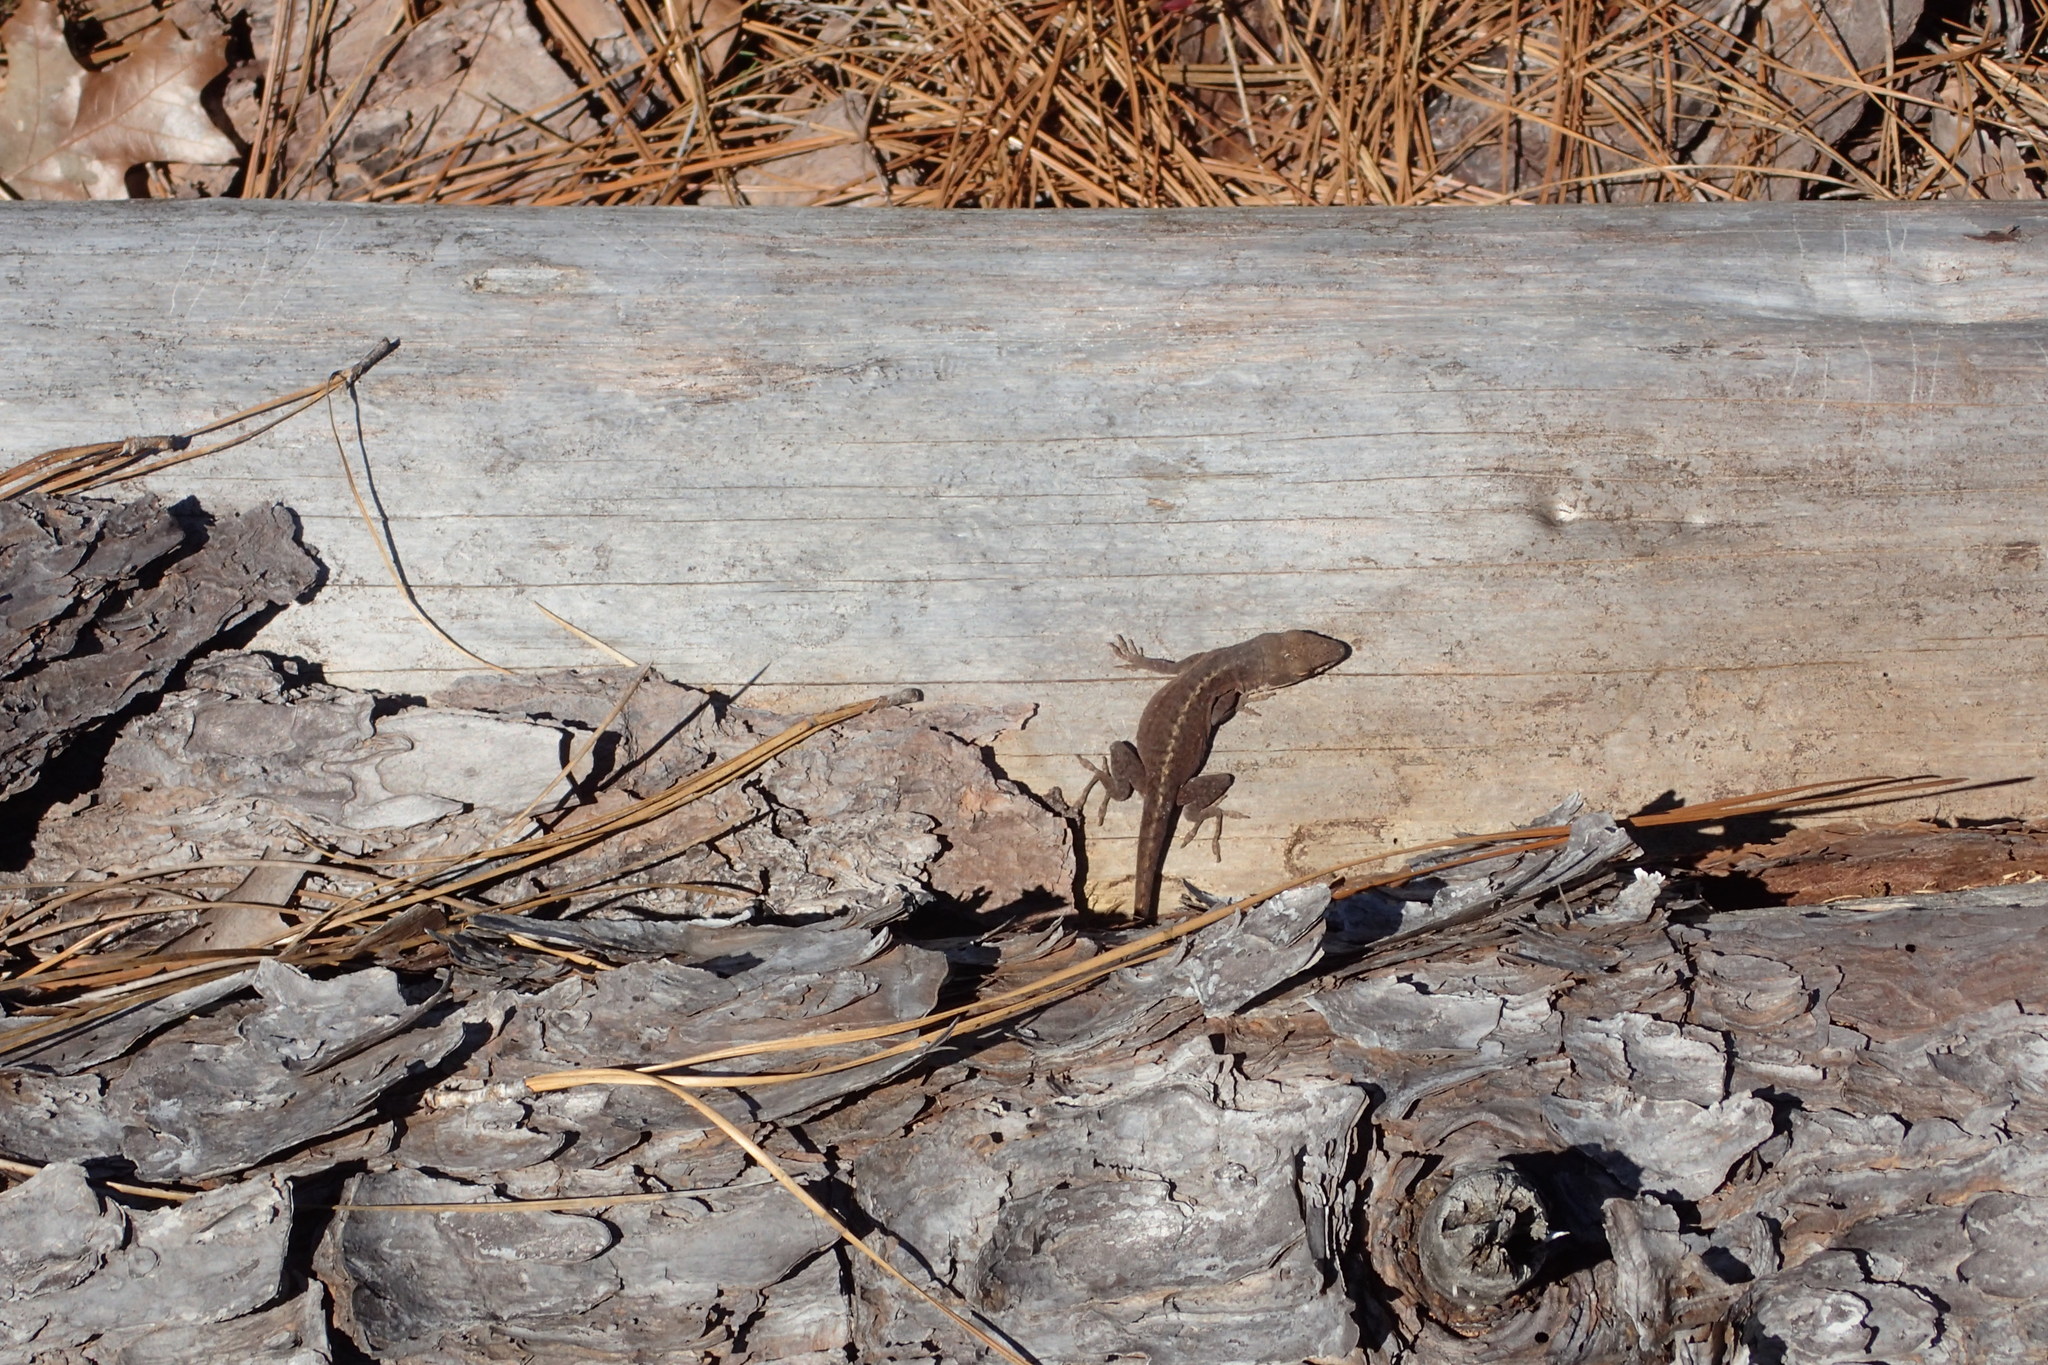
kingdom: Animalia
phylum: Chordata
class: Squamata
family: Dactyloidae
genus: Anolis
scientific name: Anolis carolinensis
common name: Green anole
